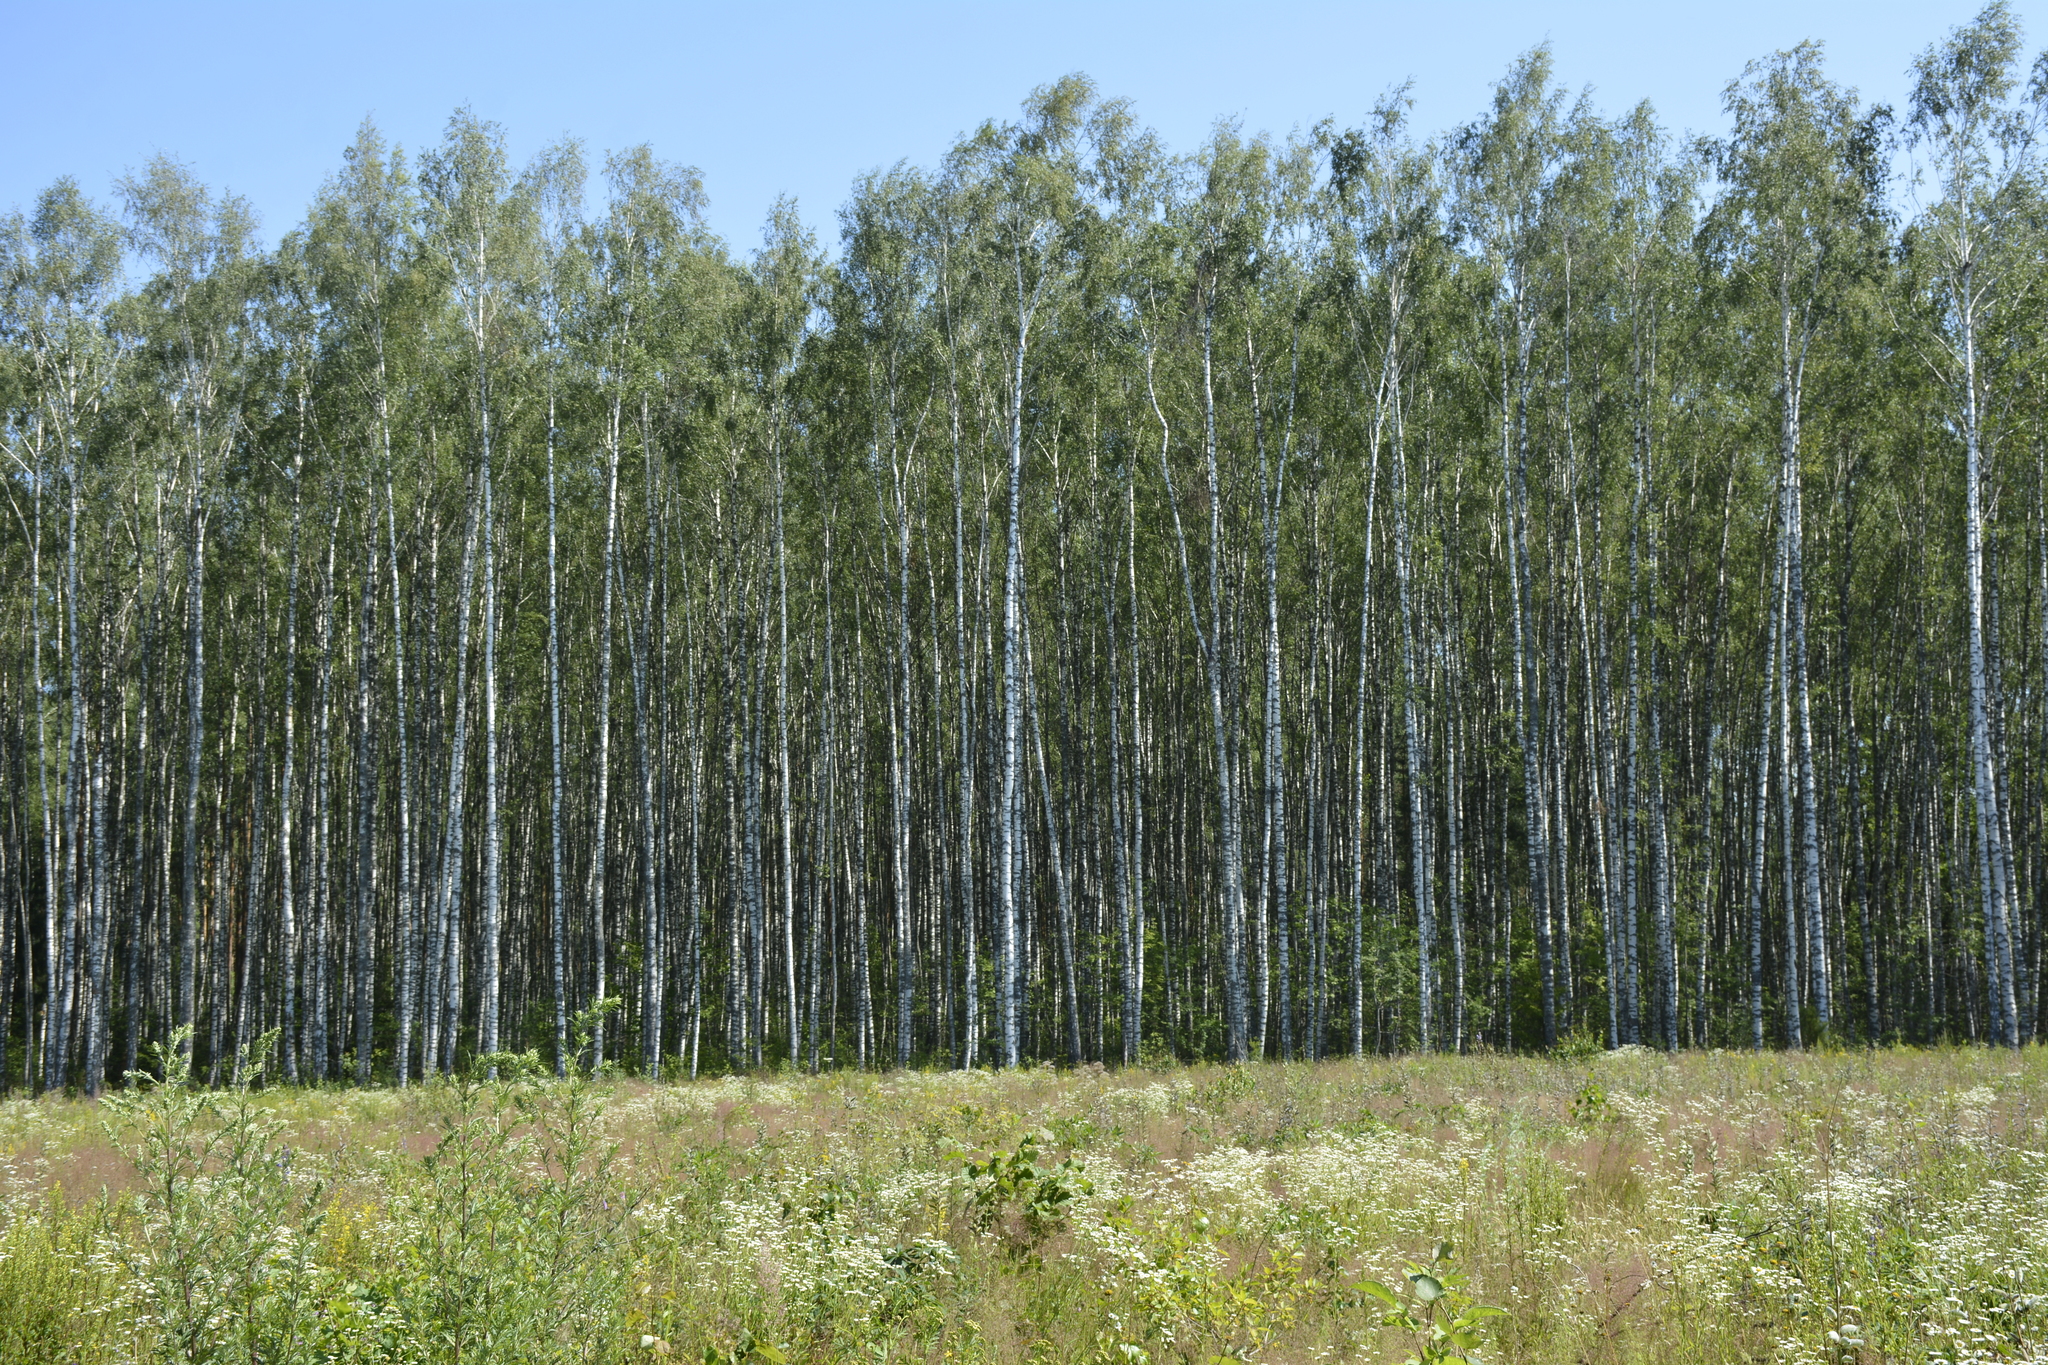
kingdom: Plantae
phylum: Tracheophyta
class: Magnoliopsida
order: Fagales
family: Betulaceae
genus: Betula
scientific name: Betula pendula
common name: Silver birch
